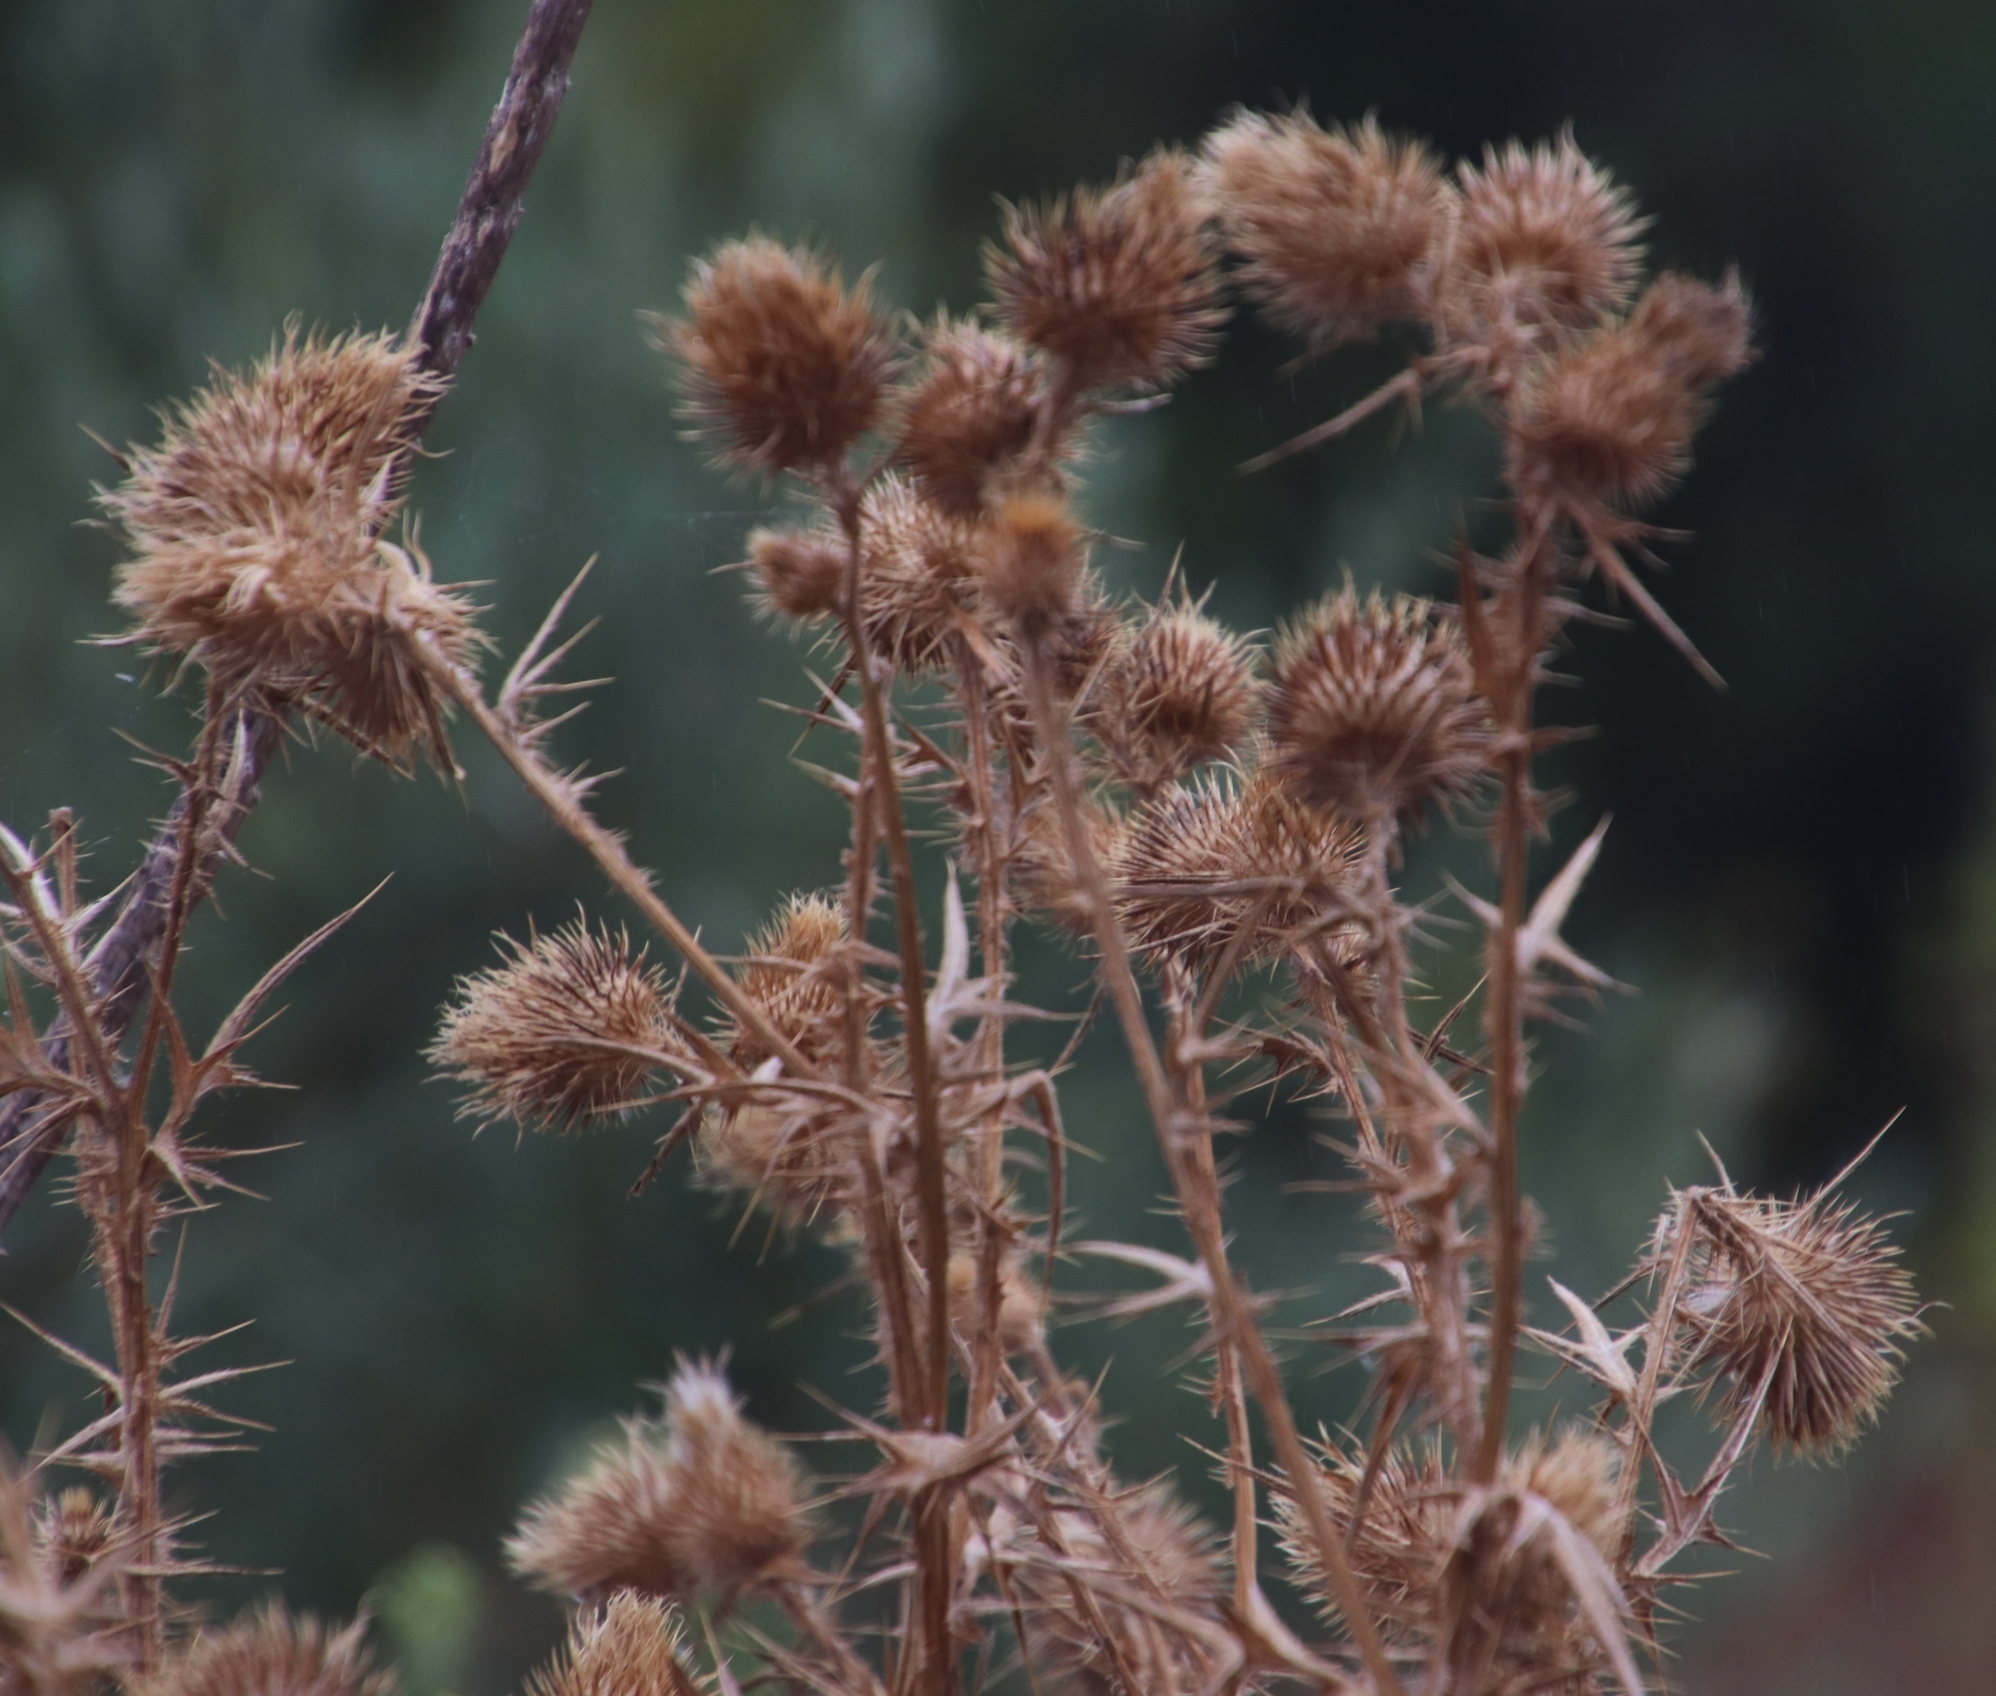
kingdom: Plantae
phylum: Tracheophyta
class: Magnoliopsida
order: Asterales
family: Asteraceae
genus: Cirsium
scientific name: Cirsium vulgare
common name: Bull thistle
